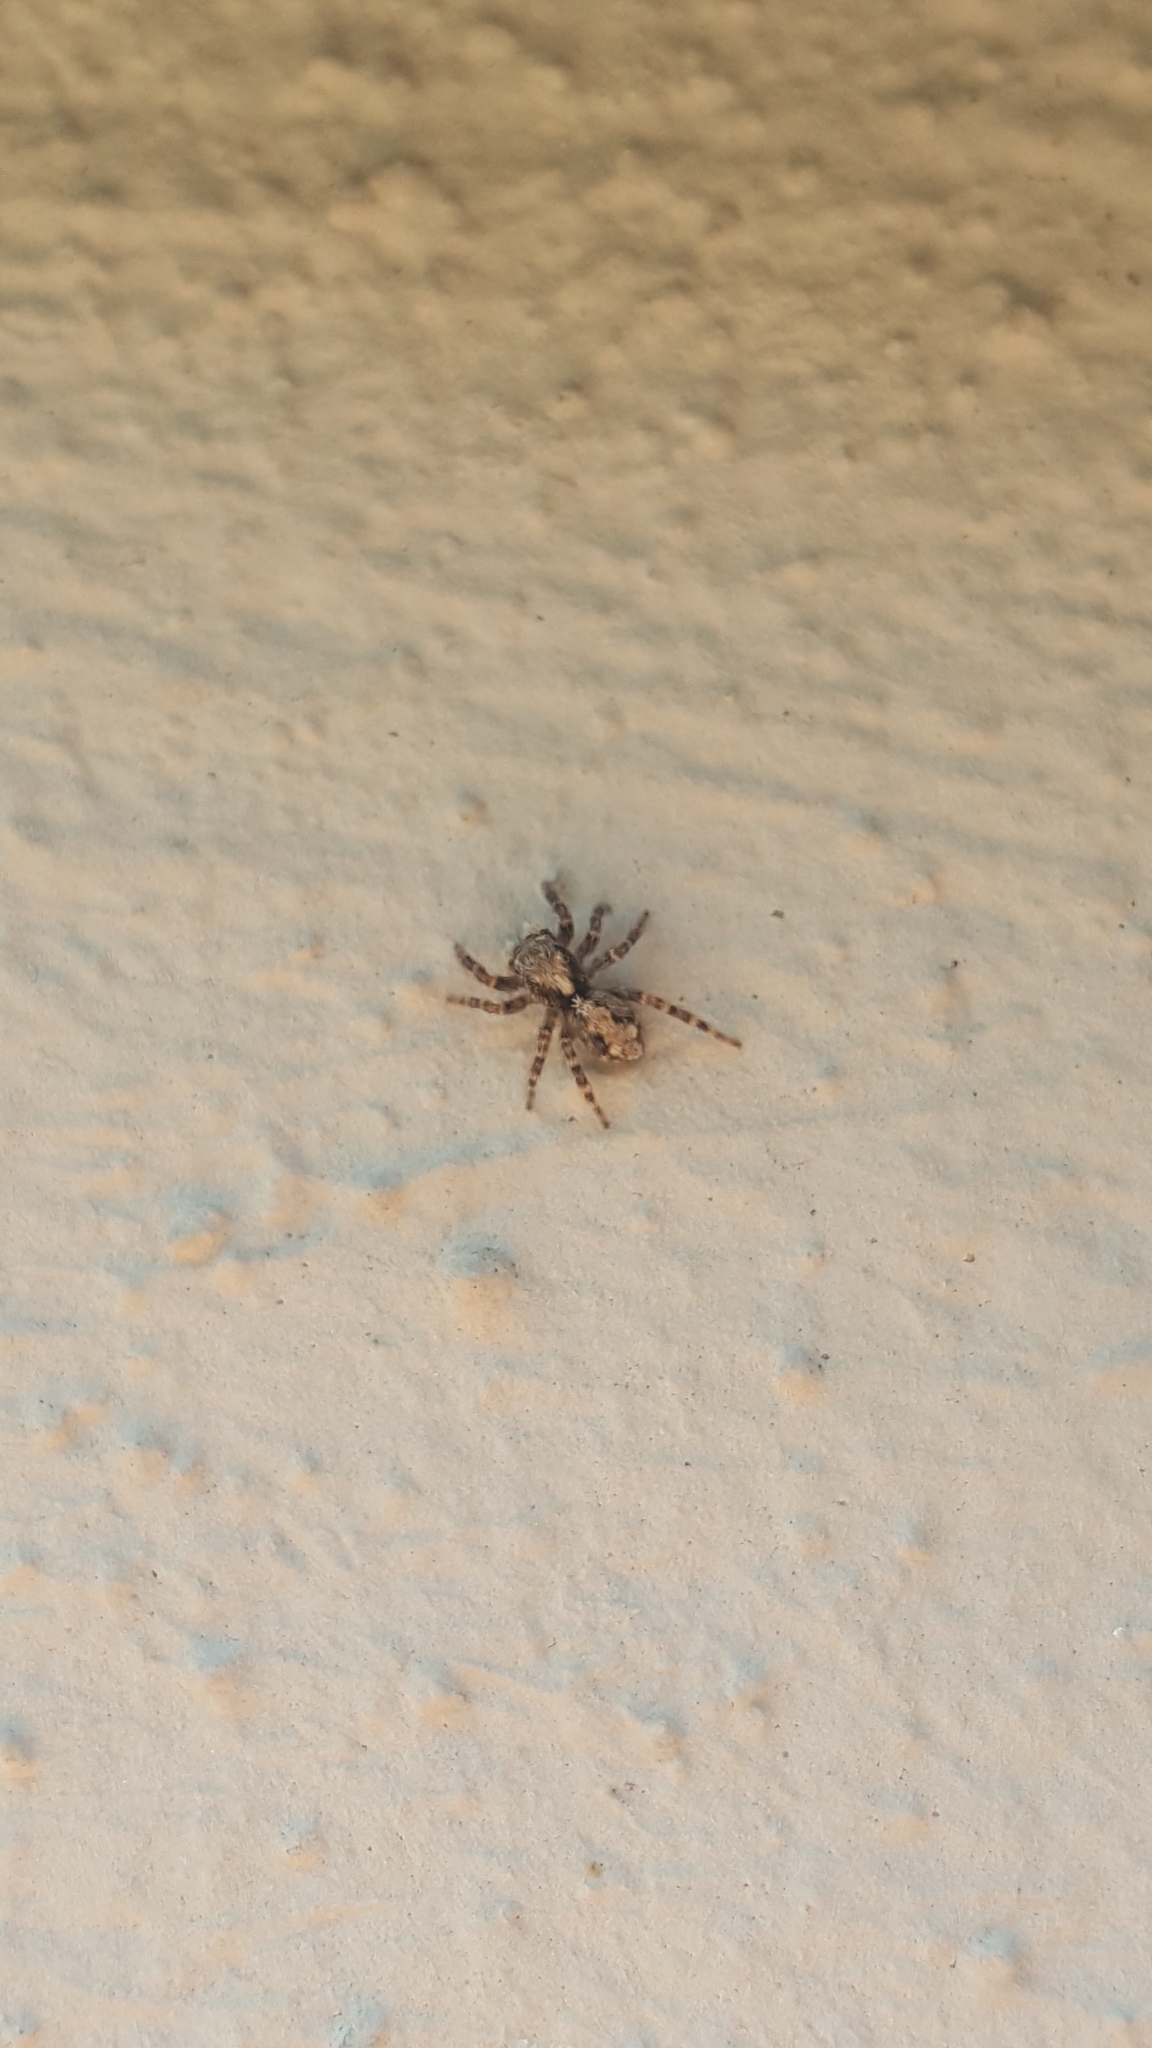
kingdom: Animalia
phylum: Arthropoda
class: Arachnida
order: Araneae
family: Salticidae
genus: Pseudeuophrys
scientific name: Pseudeuophrys lanigera
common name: Jumping spider
